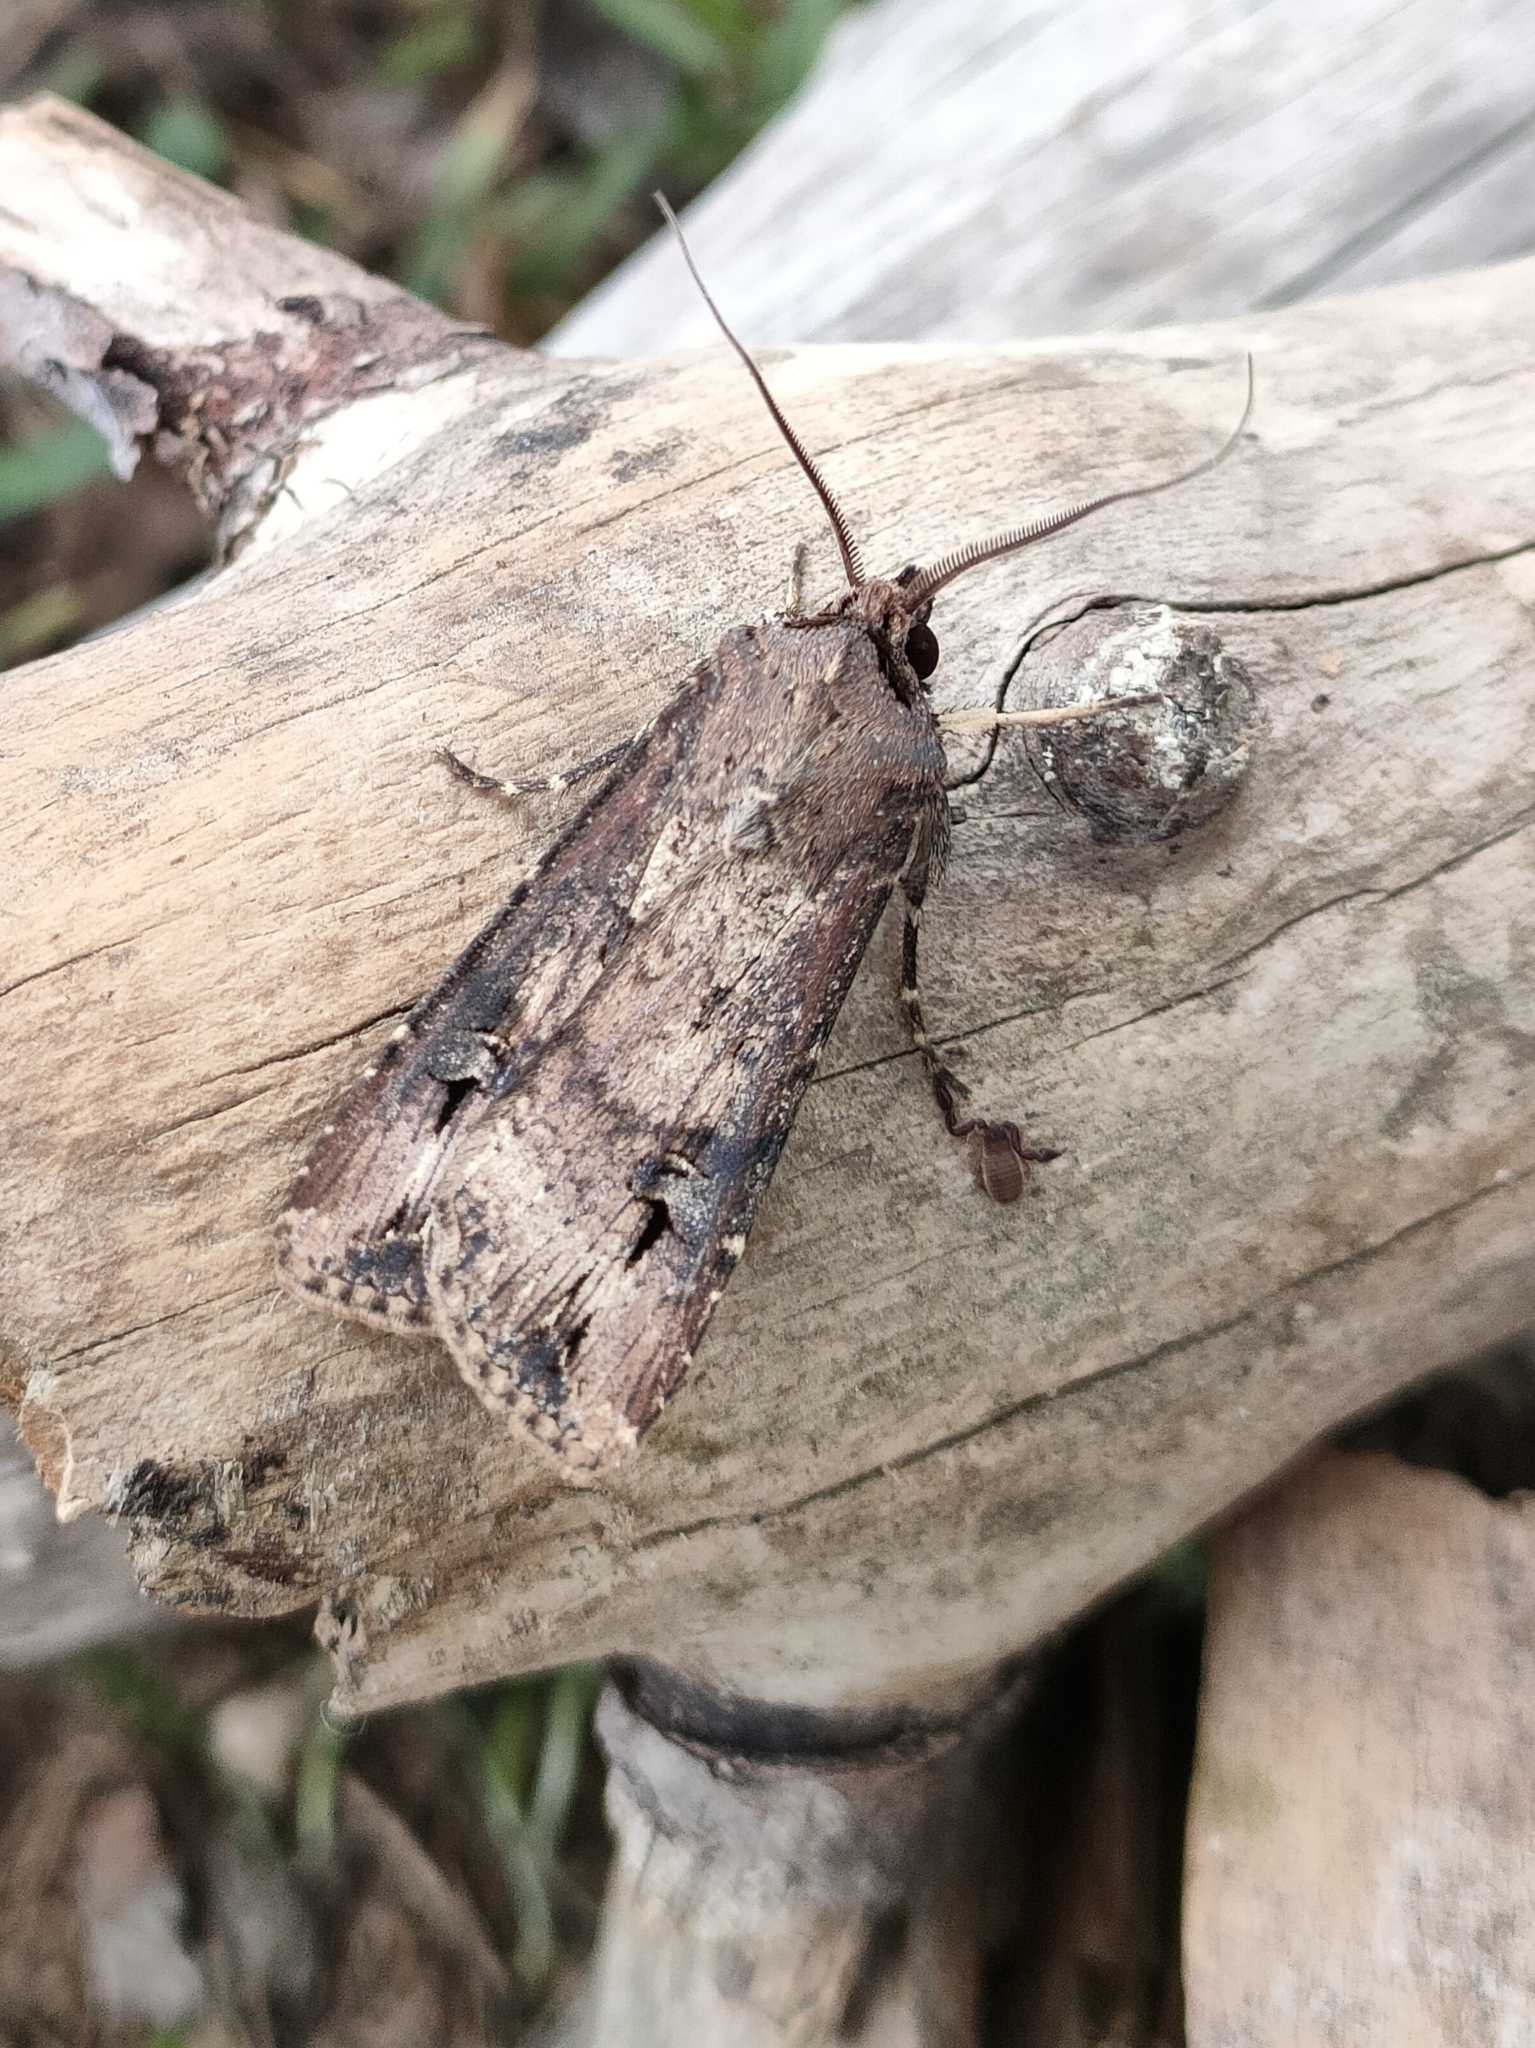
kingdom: Animalia
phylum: Arthropoda
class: Insecta
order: Lepidoptera
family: Noctuidae
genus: Agrotis
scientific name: Agrotis ipsilon
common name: Dark sword-grass
